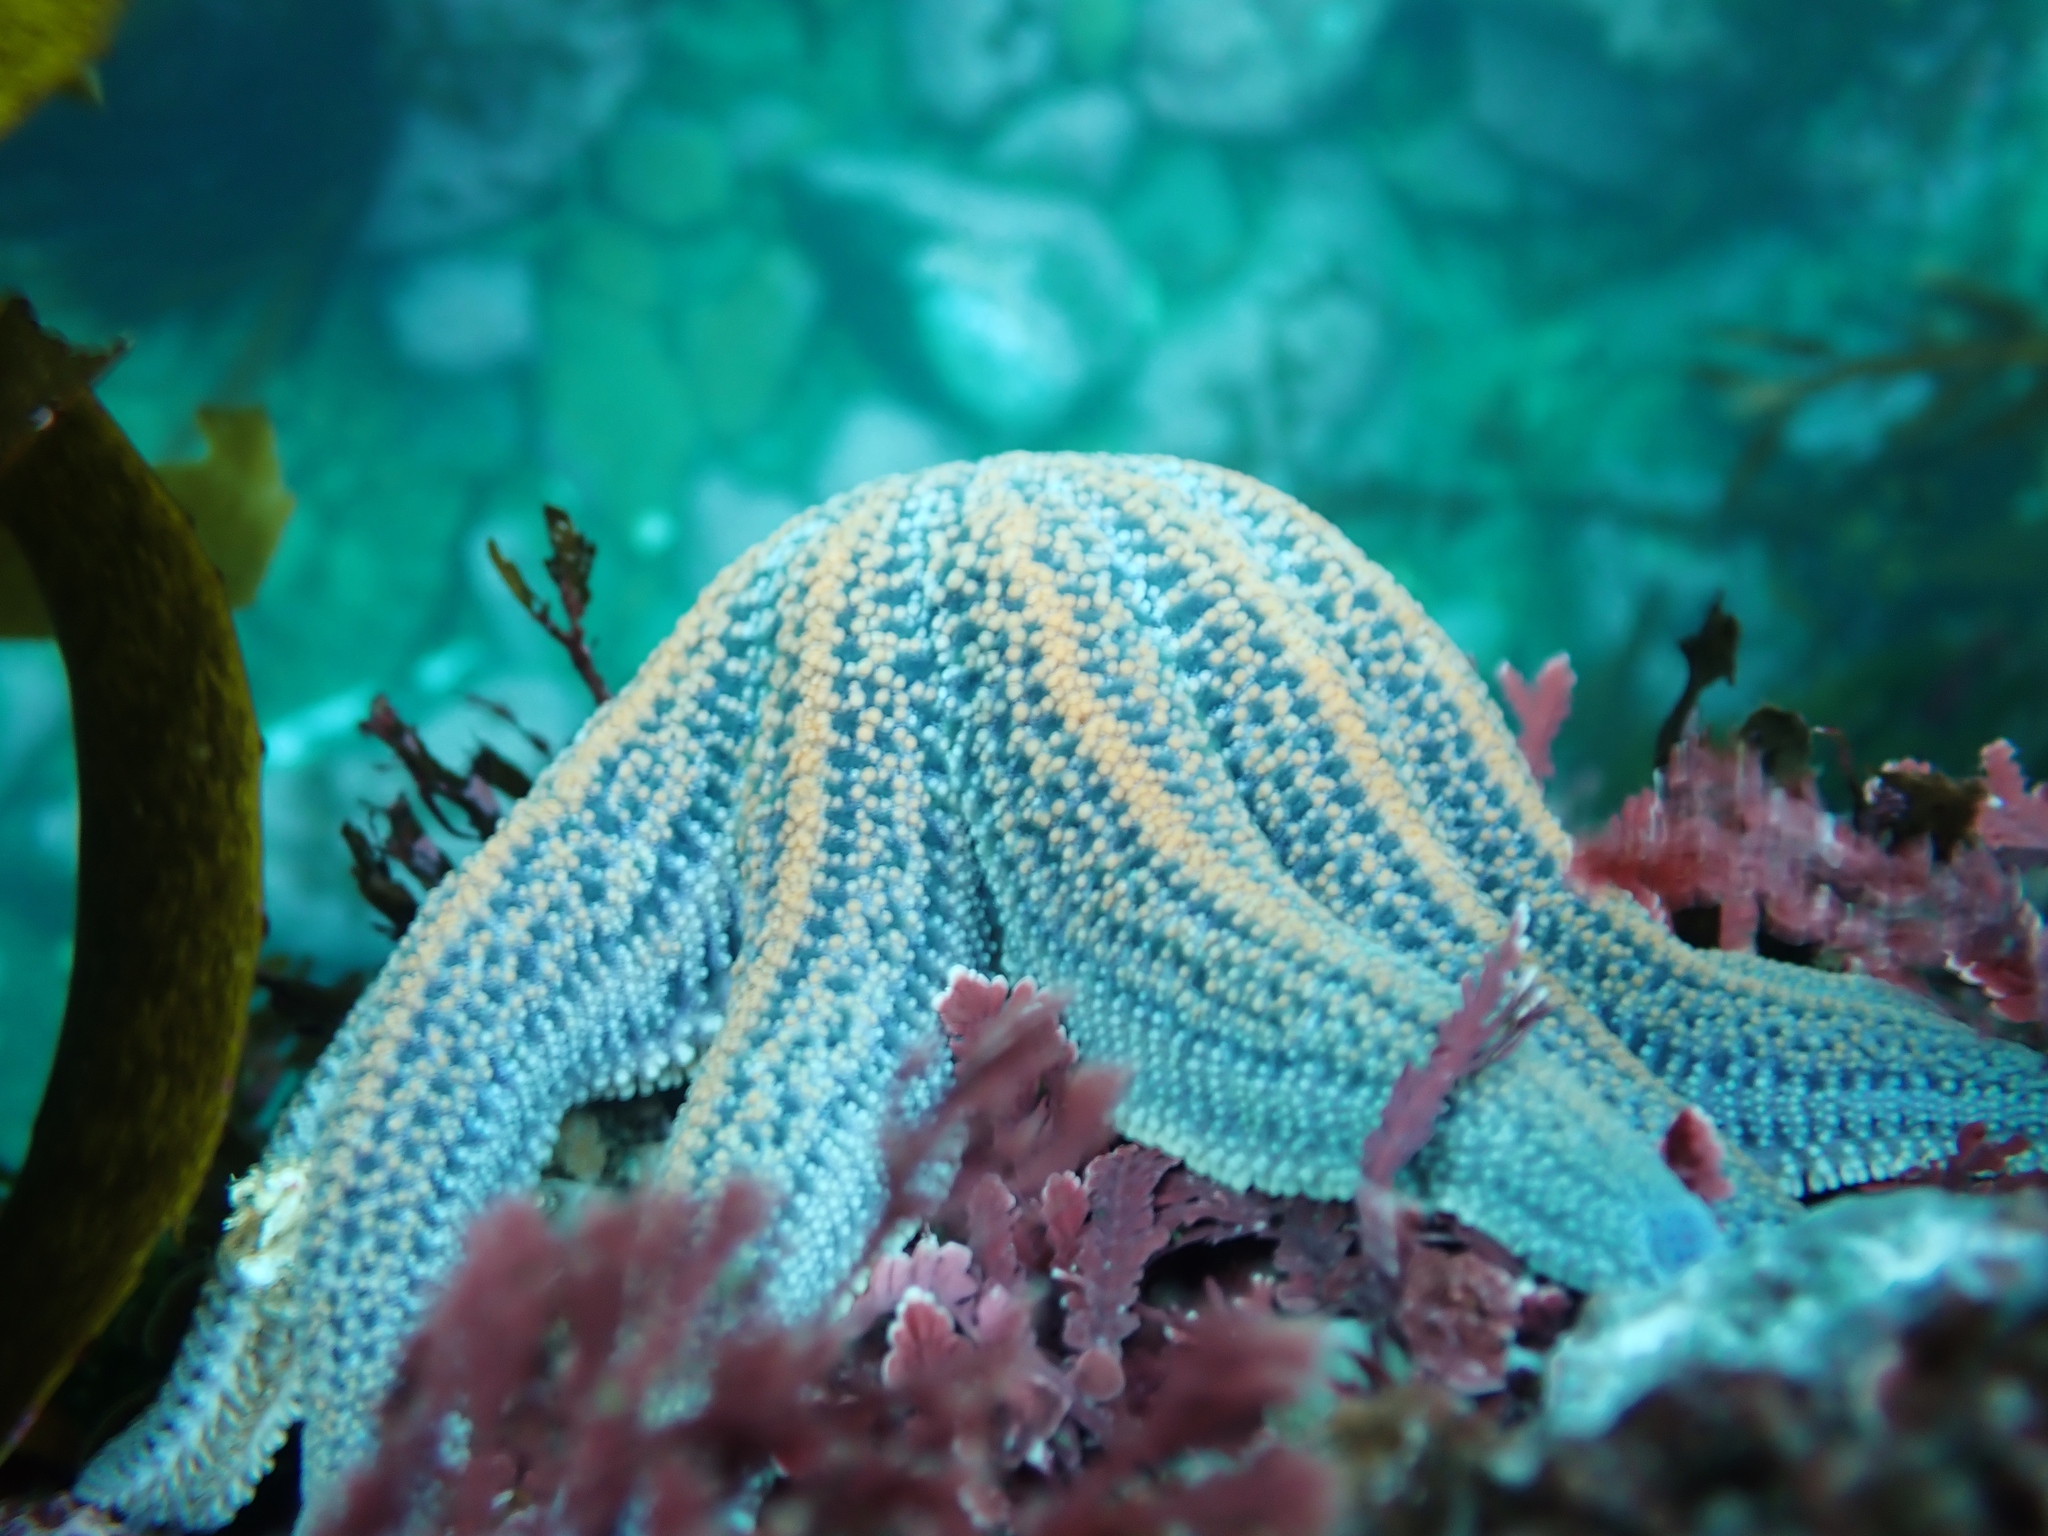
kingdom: Animalia
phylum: Echinodermata
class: Asteroidea
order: Forcipulatida
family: Stichasteridae
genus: Stichaster
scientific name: Stichaster australis
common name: Reef starfish
